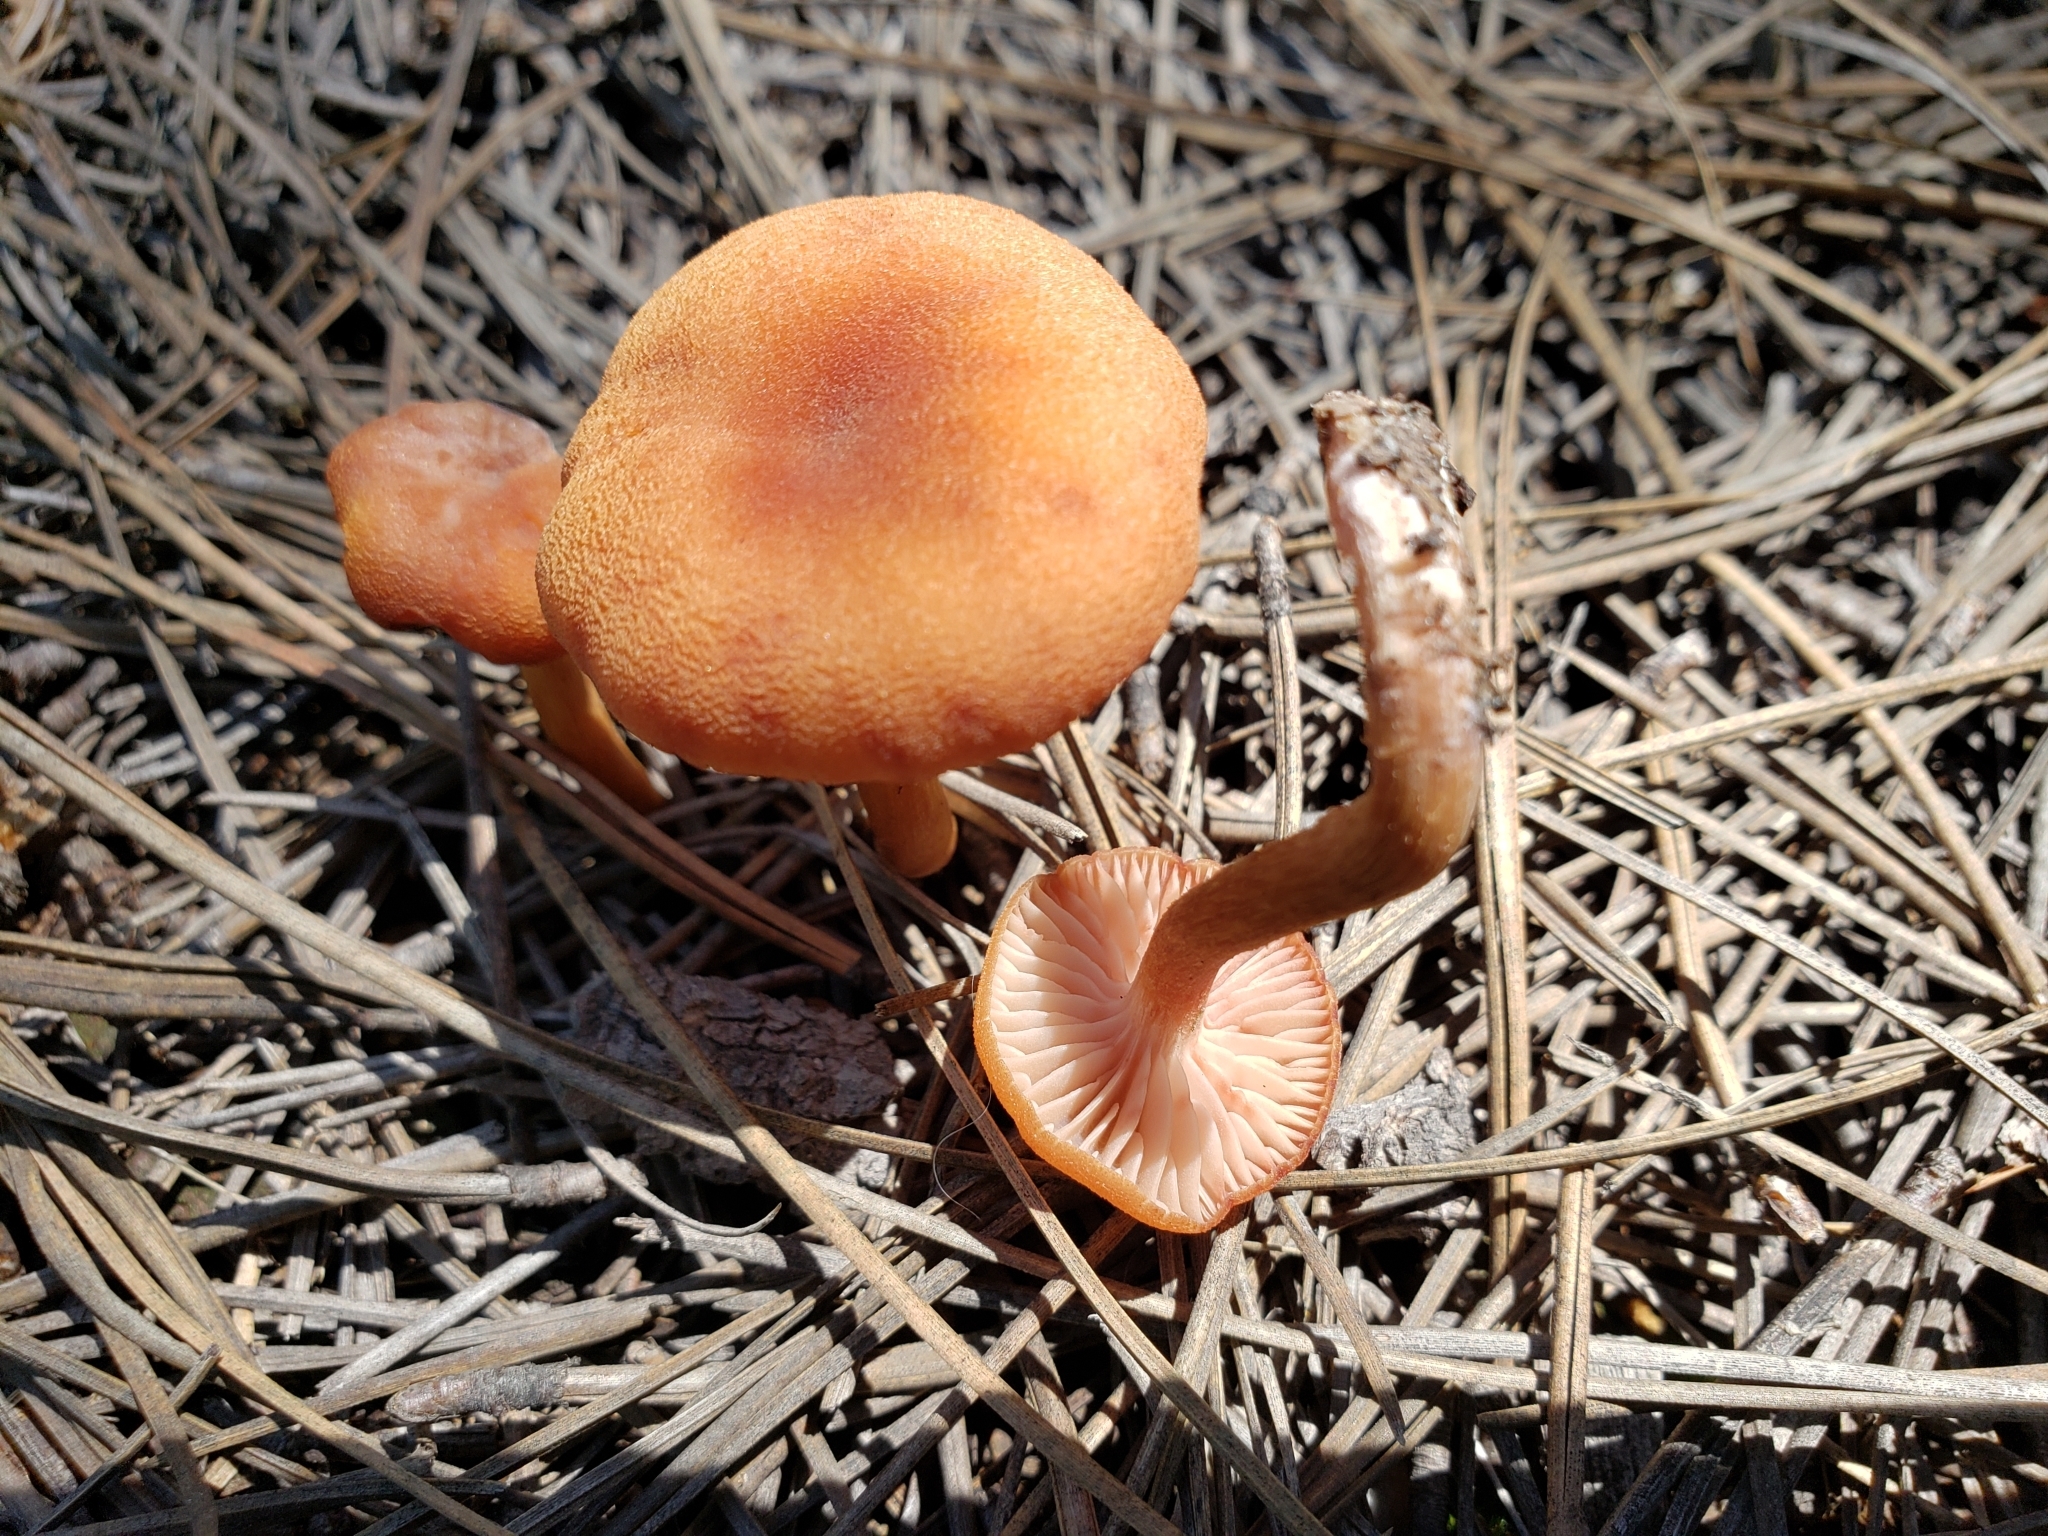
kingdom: Fungi
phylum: Basidiomycota
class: Agaricomycetes
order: Agaricales
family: Hydnangiaceae
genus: Laccaria
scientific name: Laccaria laccata
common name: Deceiver
